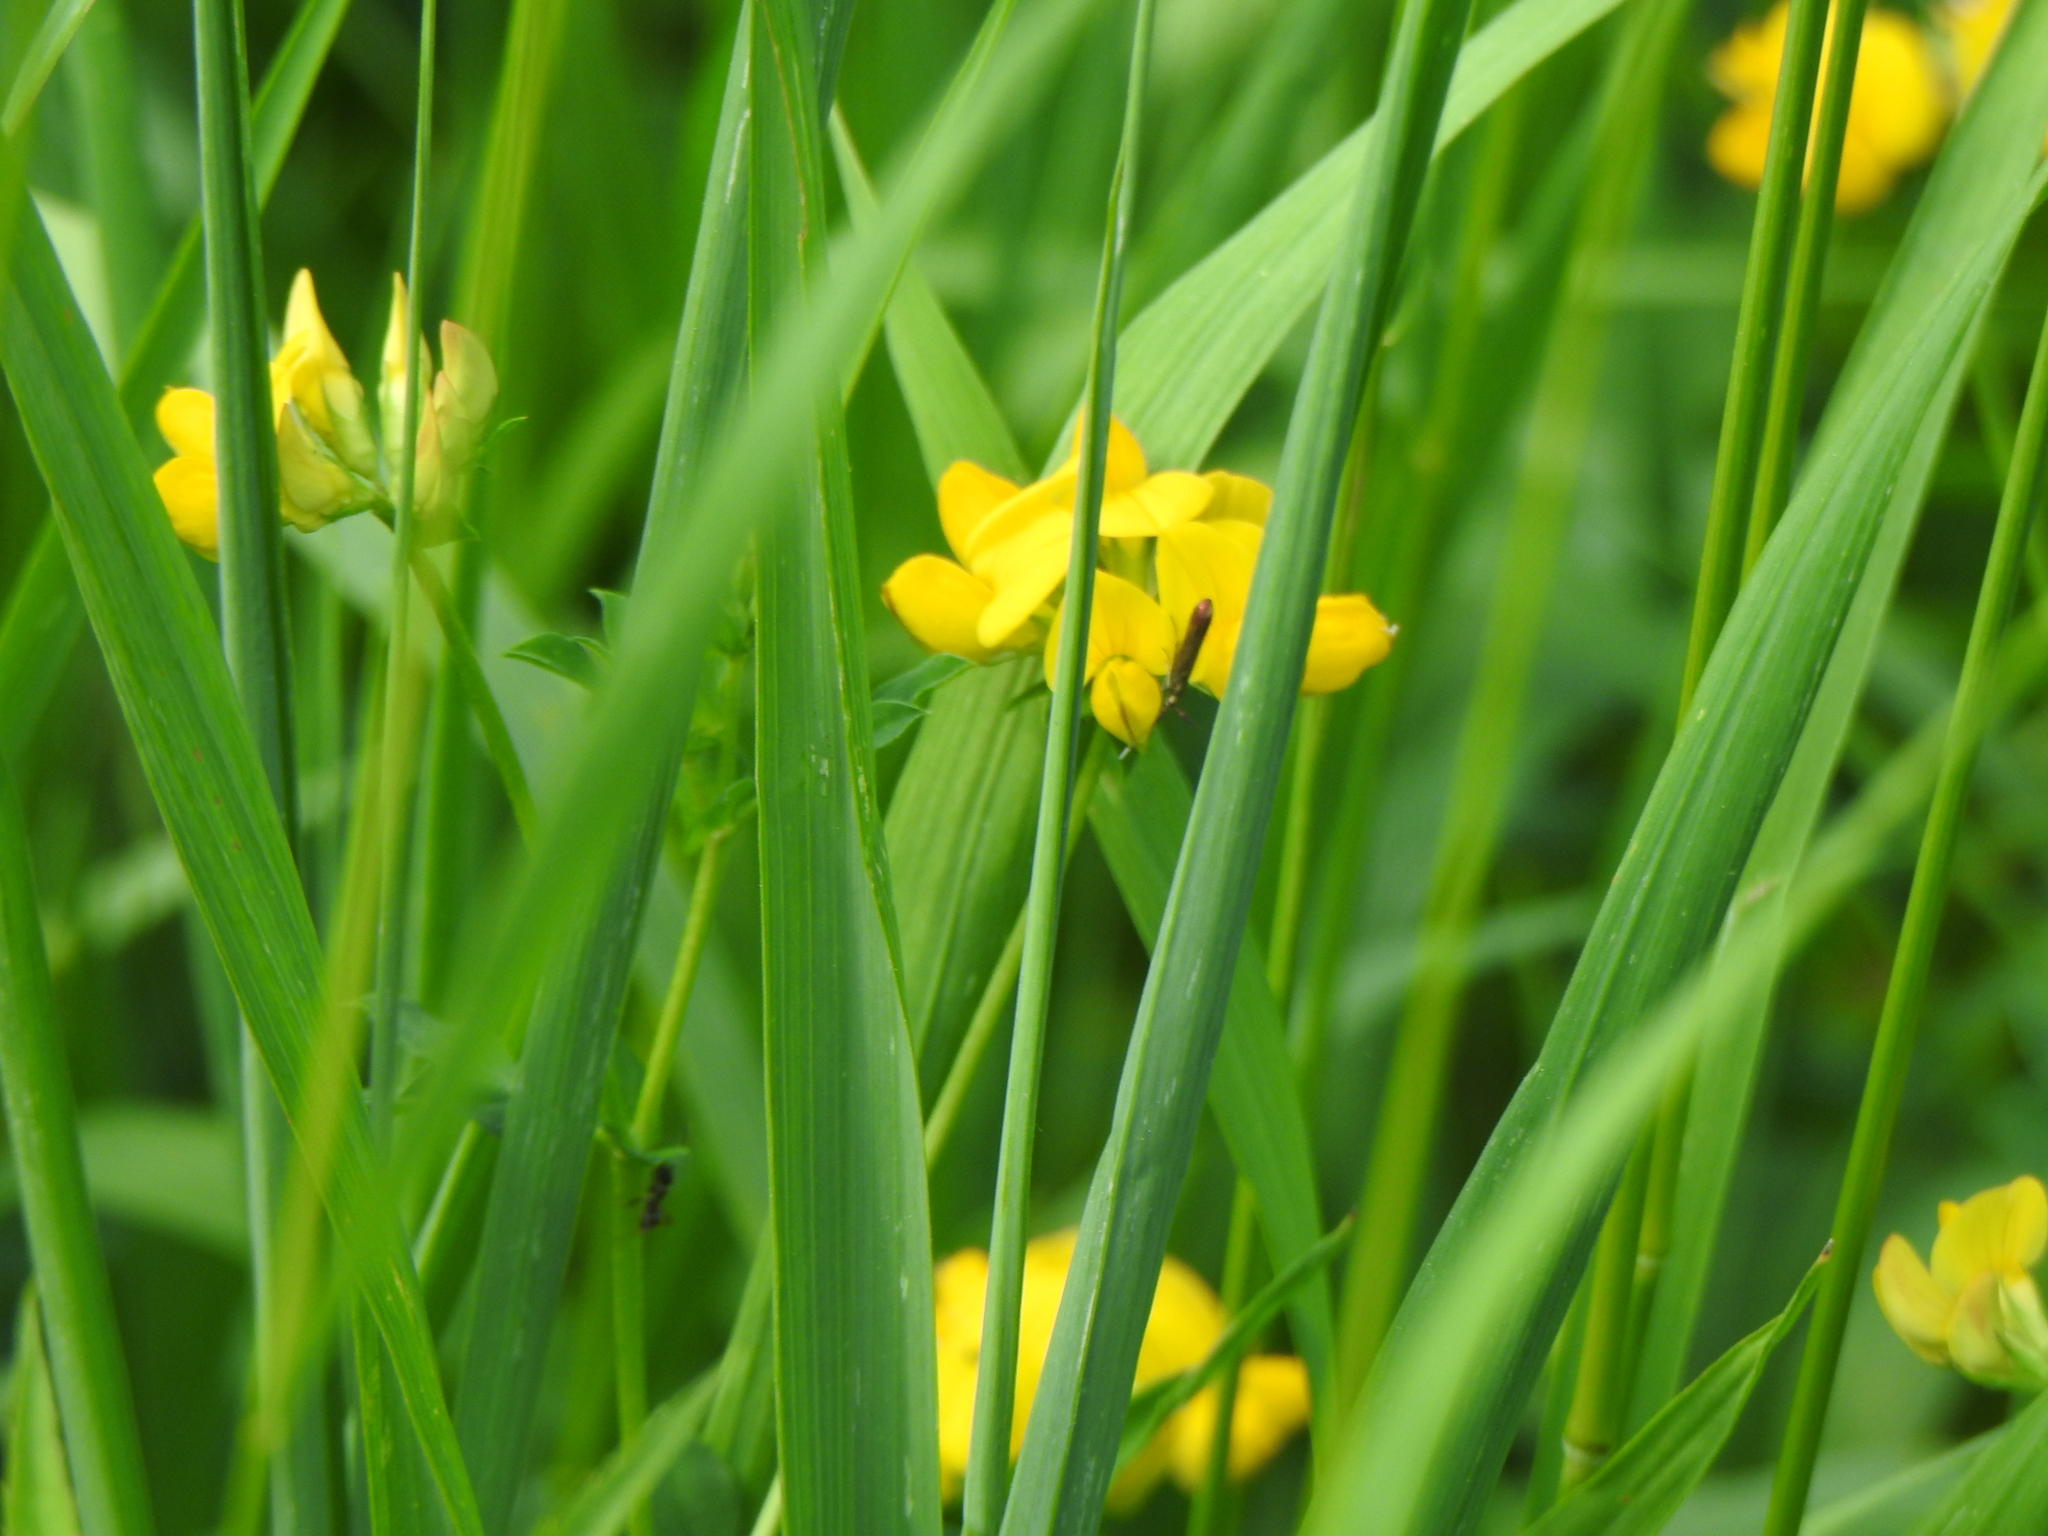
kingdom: Plantae
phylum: Tracheophyta
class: Magnoliopsida
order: Fabales
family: Fabaceae
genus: Lotus
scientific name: Lotus corniculatus
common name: Common bird's-foot-trefoil
